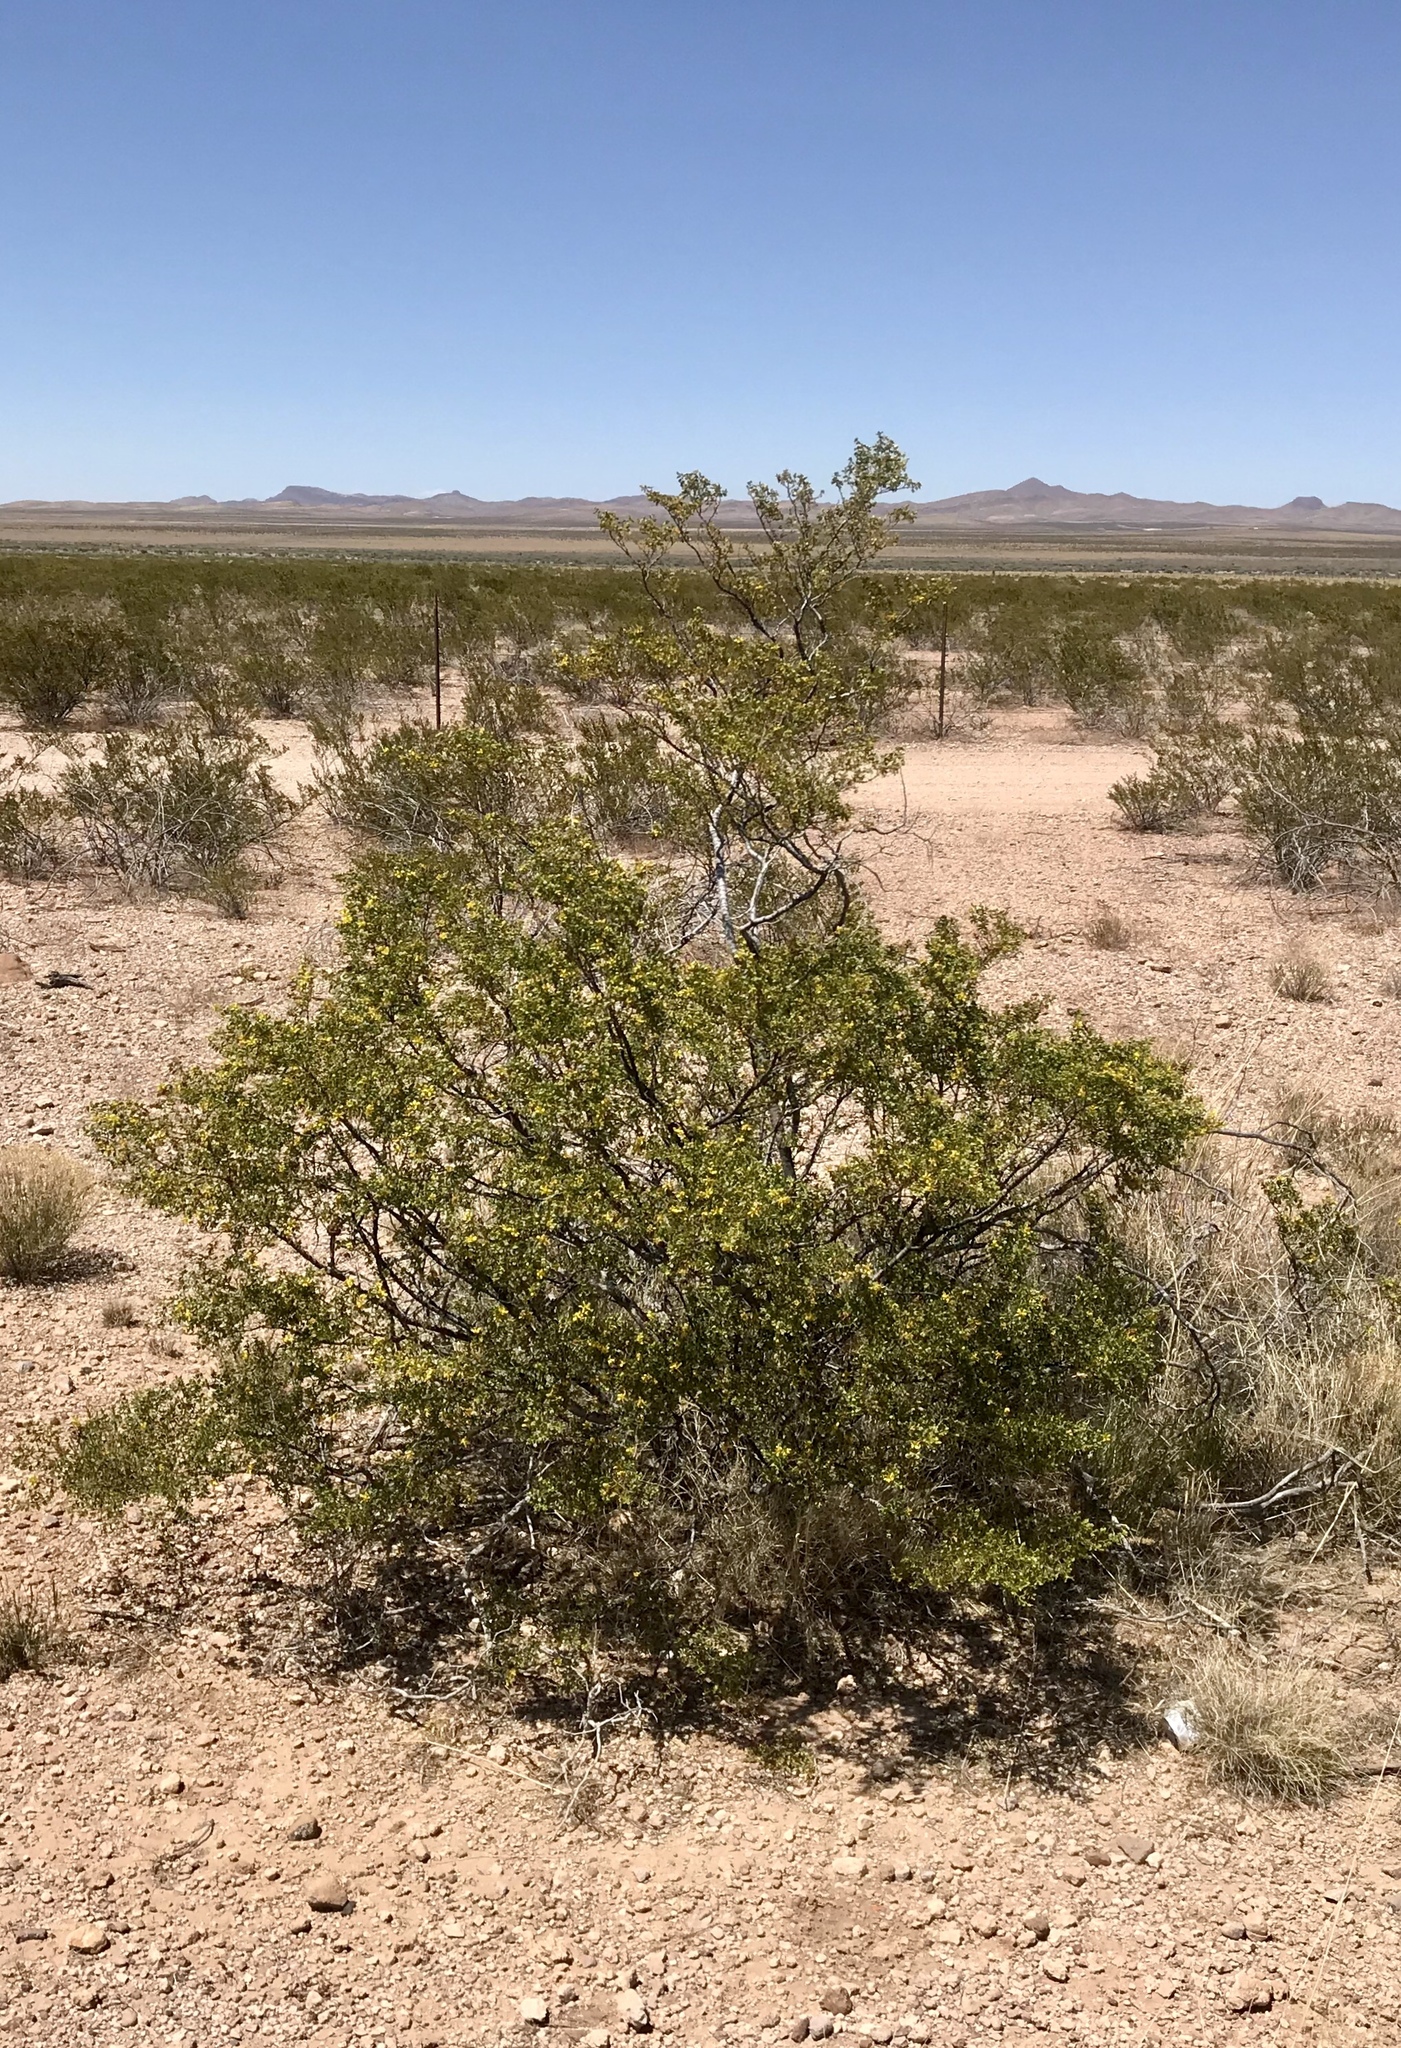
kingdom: Plantae
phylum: Tracheophyta
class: Magnoliopsida
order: Zygophyllales
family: Zygophyllaceae
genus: Larrea
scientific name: Larrea tridentata
